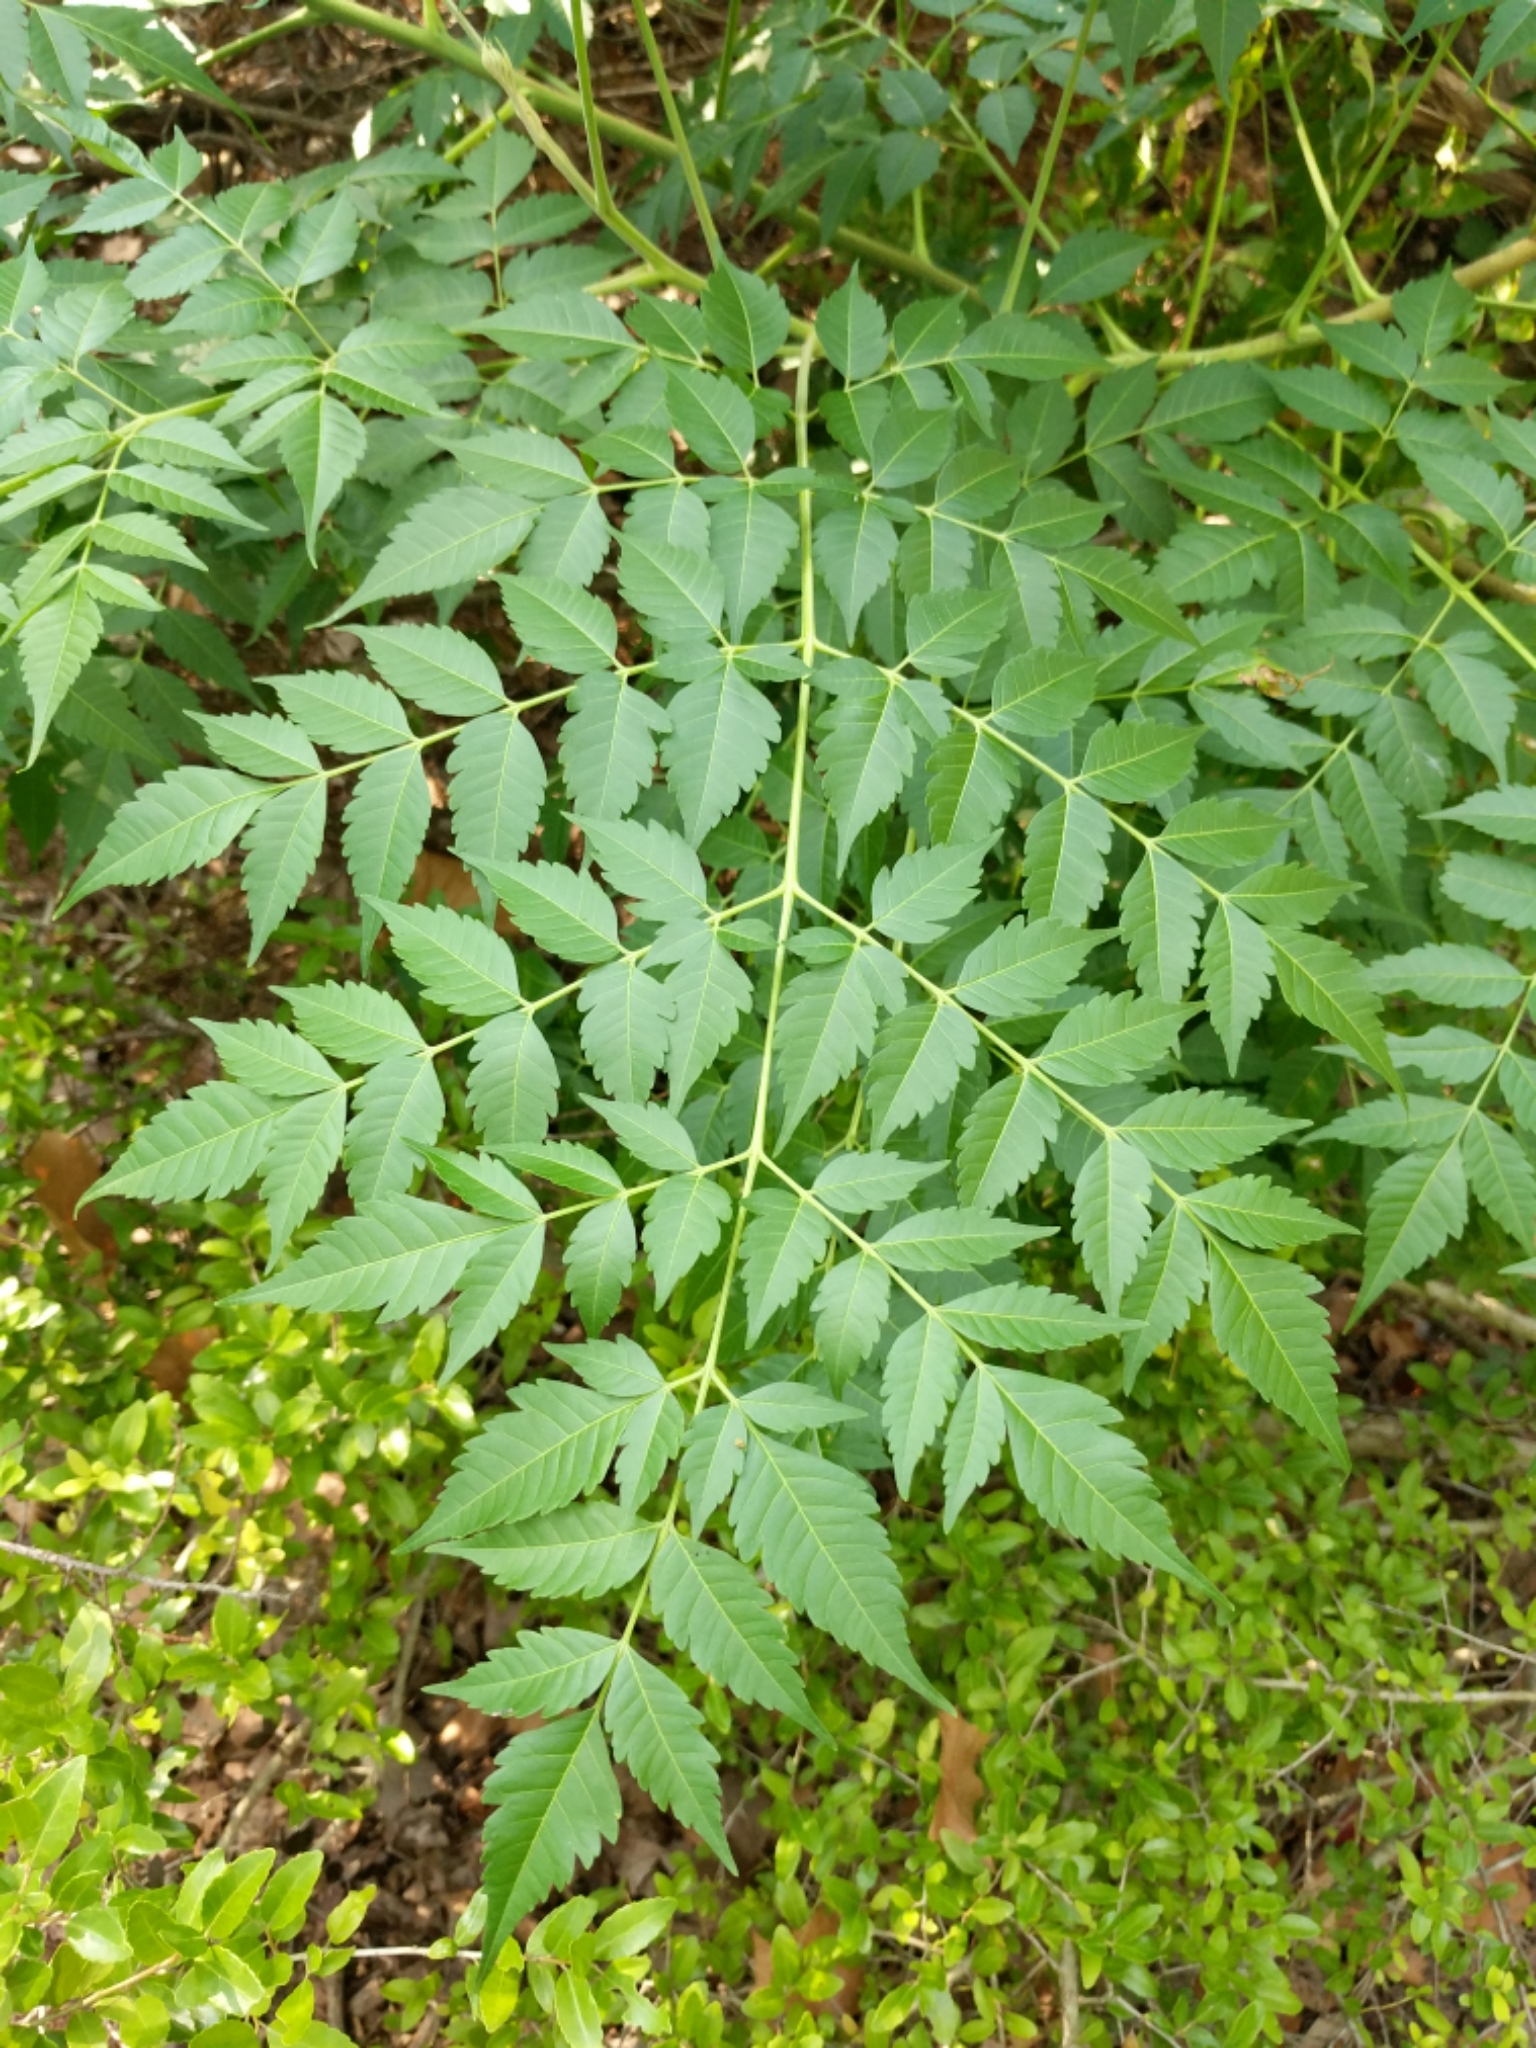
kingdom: Plantae
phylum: Tracheophyta
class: Magnoliopsida
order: Sapindales
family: Meliaceae
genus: Melia
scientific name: Melia azedarach
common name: Chinaberrytree
